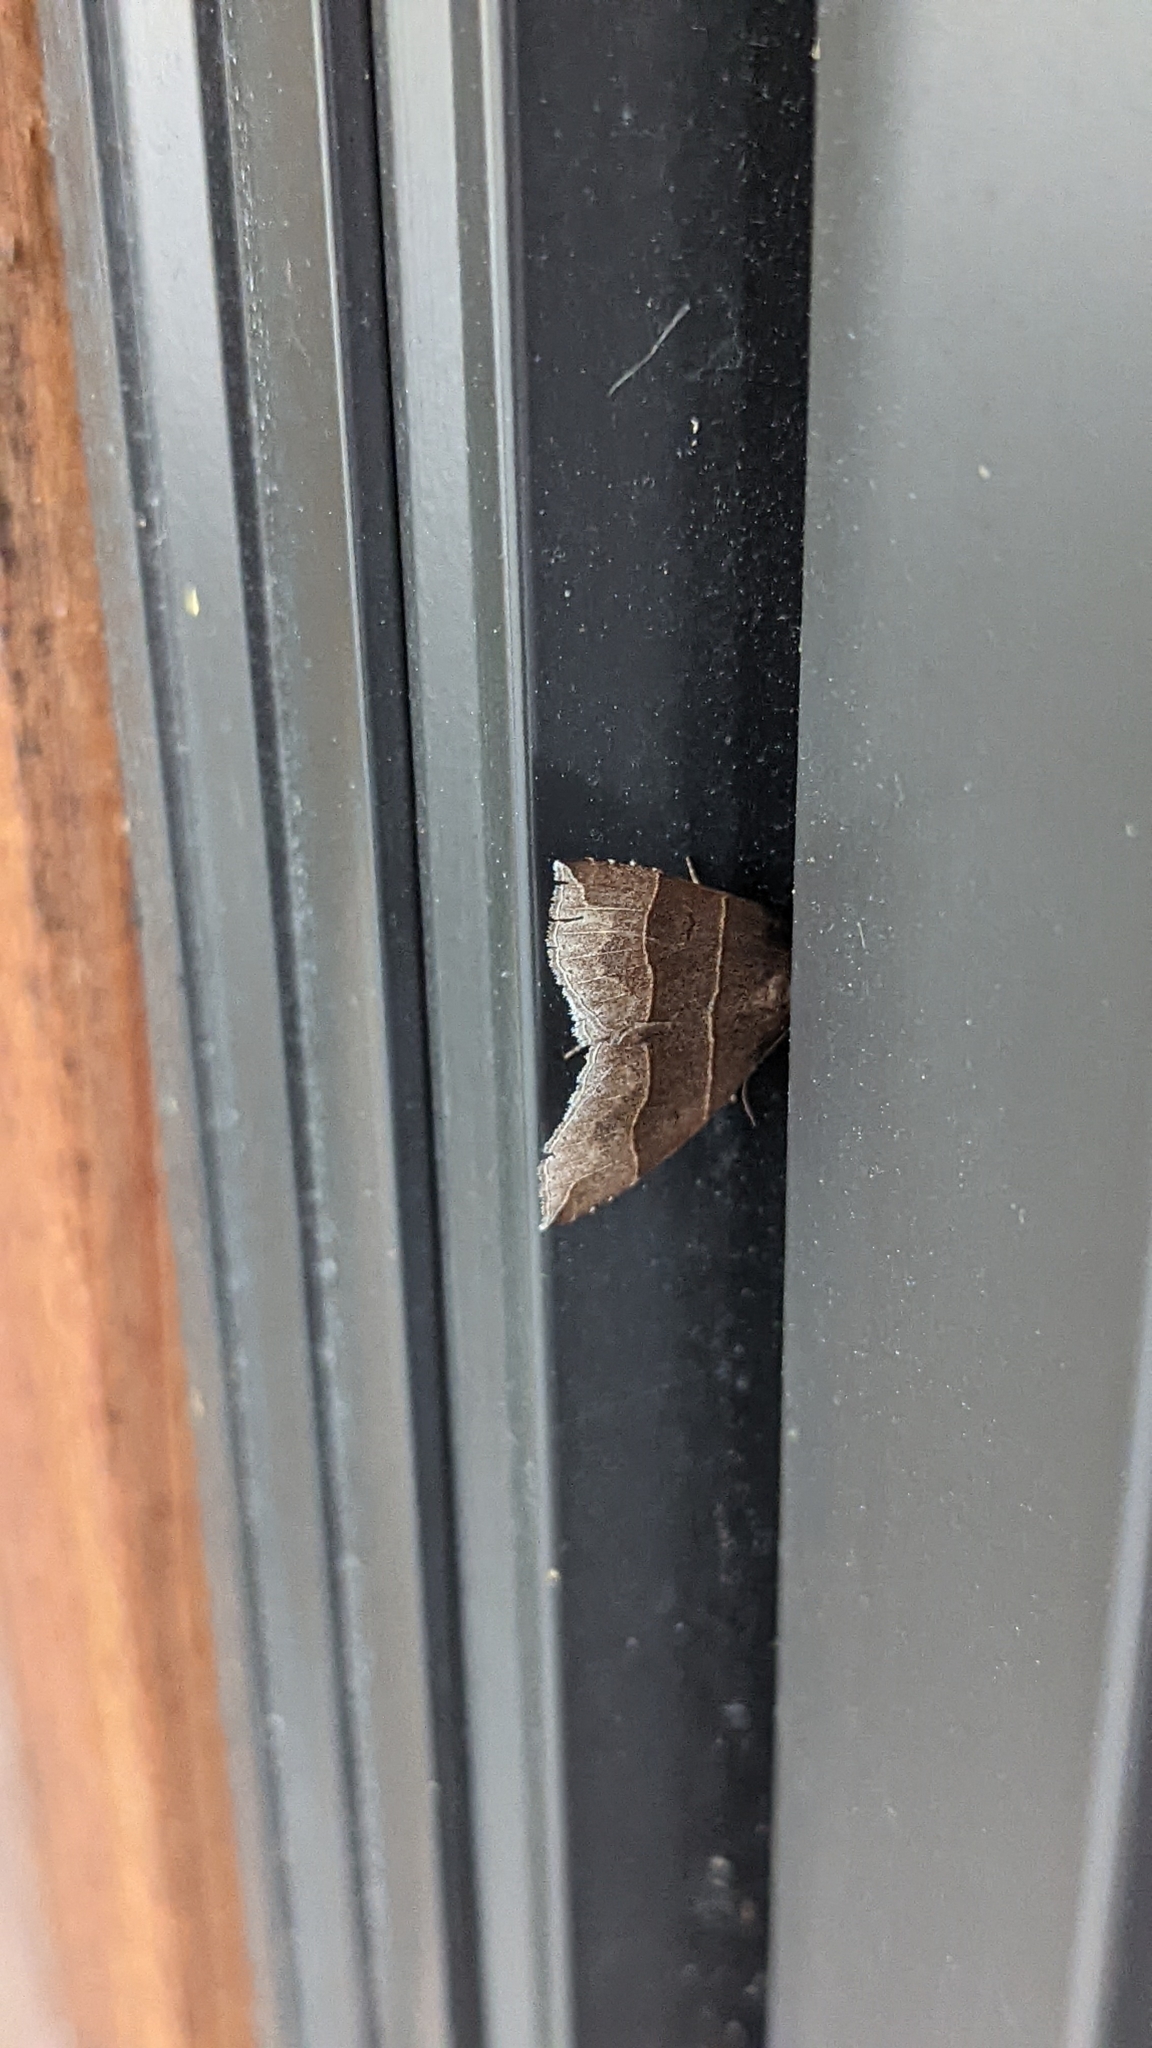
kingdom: Animalia
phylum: Arthropoda
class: Insecta
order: Lepidoptera
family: Erebidae
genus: Parallelia
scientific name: Parallelia bistriaris
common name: Maple looper moth
